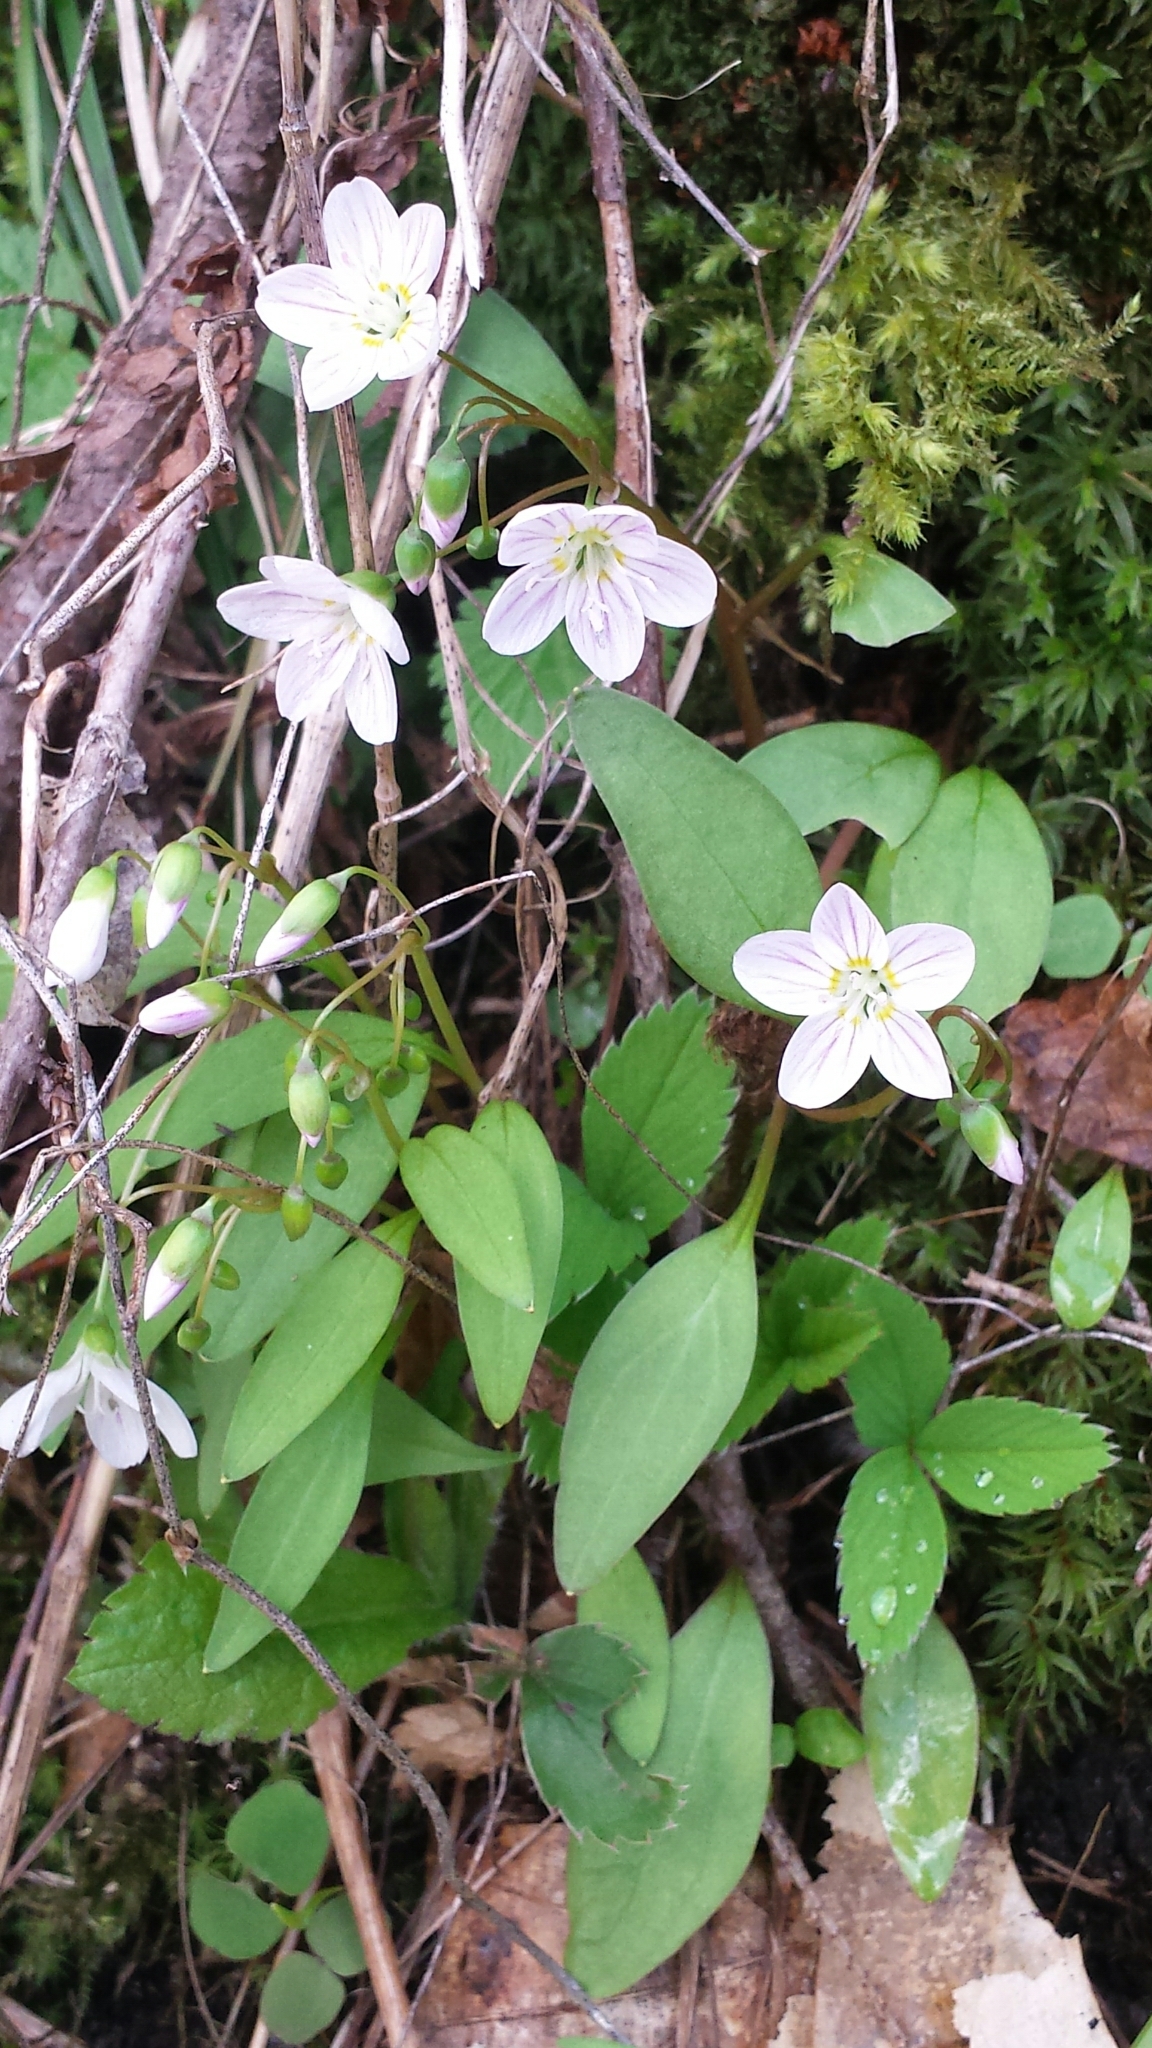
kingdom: Plantae
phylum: Tracheophyta
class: Magnoliopsida
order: Caryophyllales
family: Montiaceae
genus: Claytonia
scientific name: Claytonia caroliniana
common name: Carolina spring beauty
